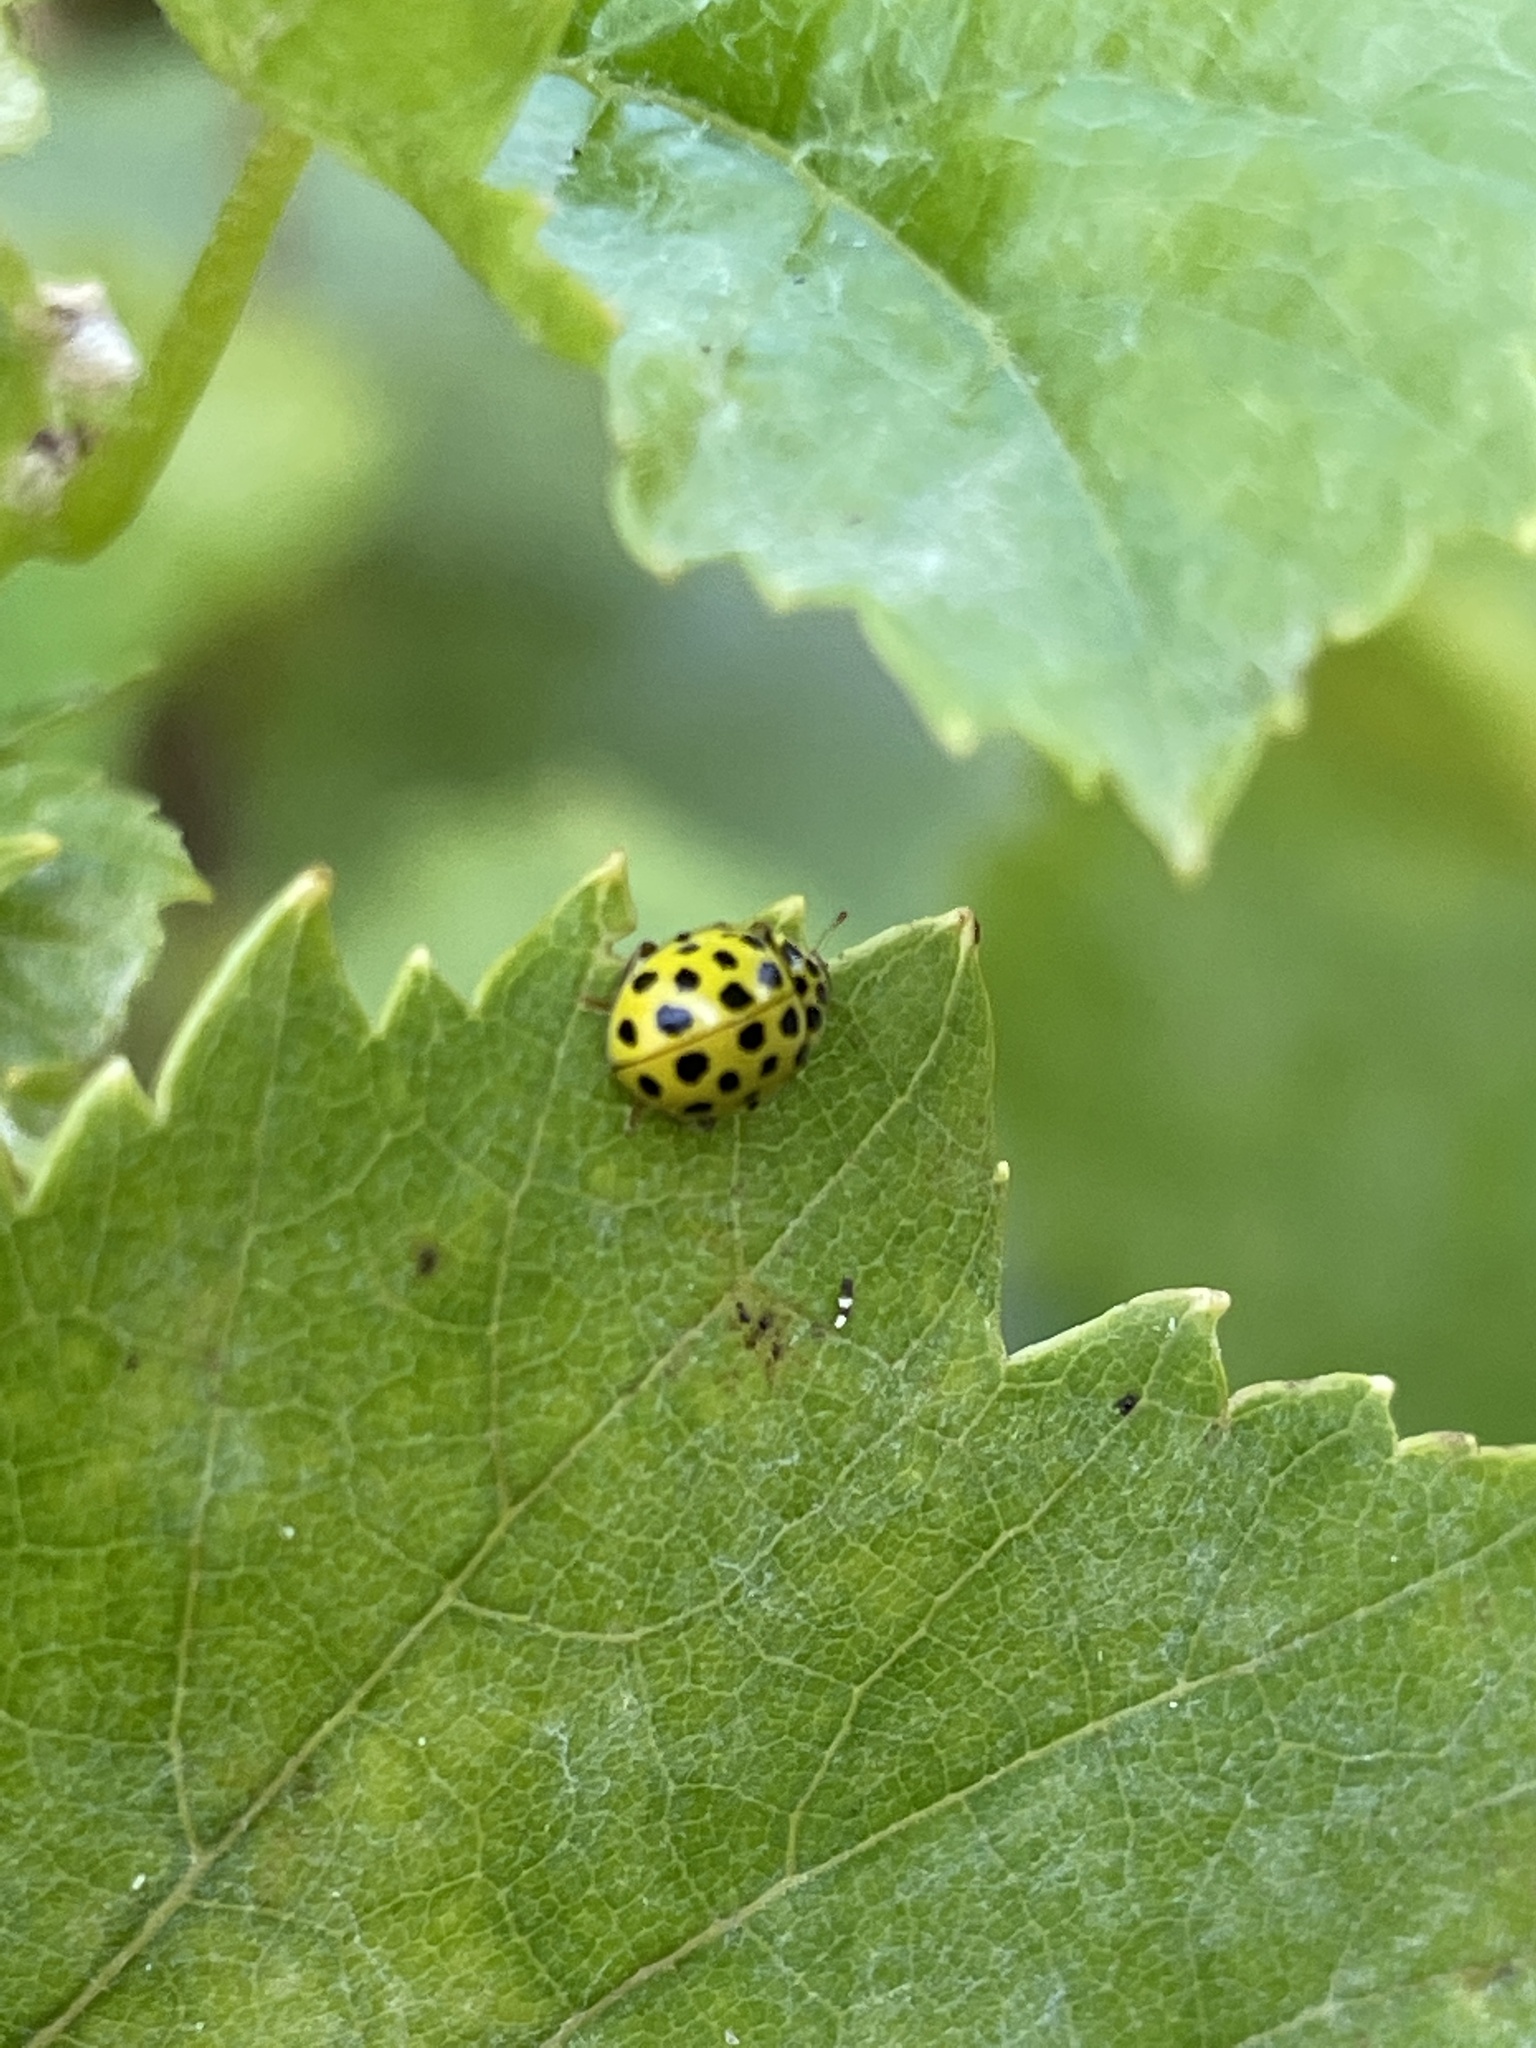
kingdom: Animalia
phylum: Arthropoda
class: Insecta
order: Coleoptera
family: Coccinellidae
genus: Psyllobora
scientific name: Psyllobora vigintiduopunctata
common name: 22-spot ladybird
